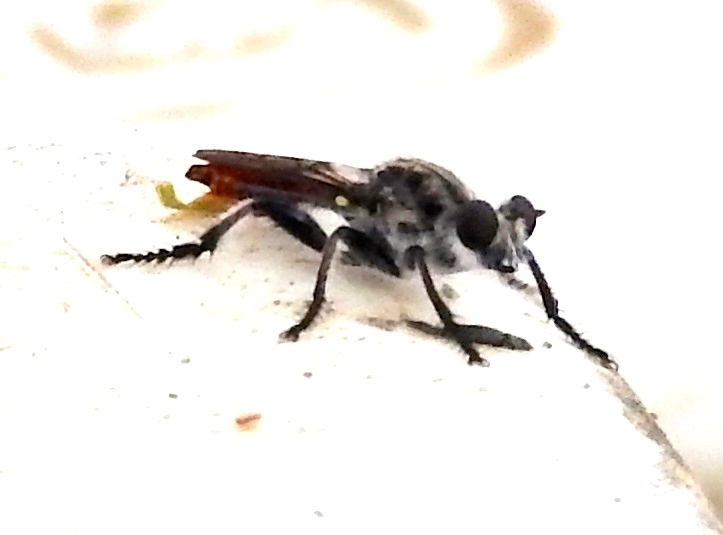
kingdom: Animalia
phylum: Arthropoda
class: Insecta
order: Diptera
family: Asilidae
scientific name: Asilidae
